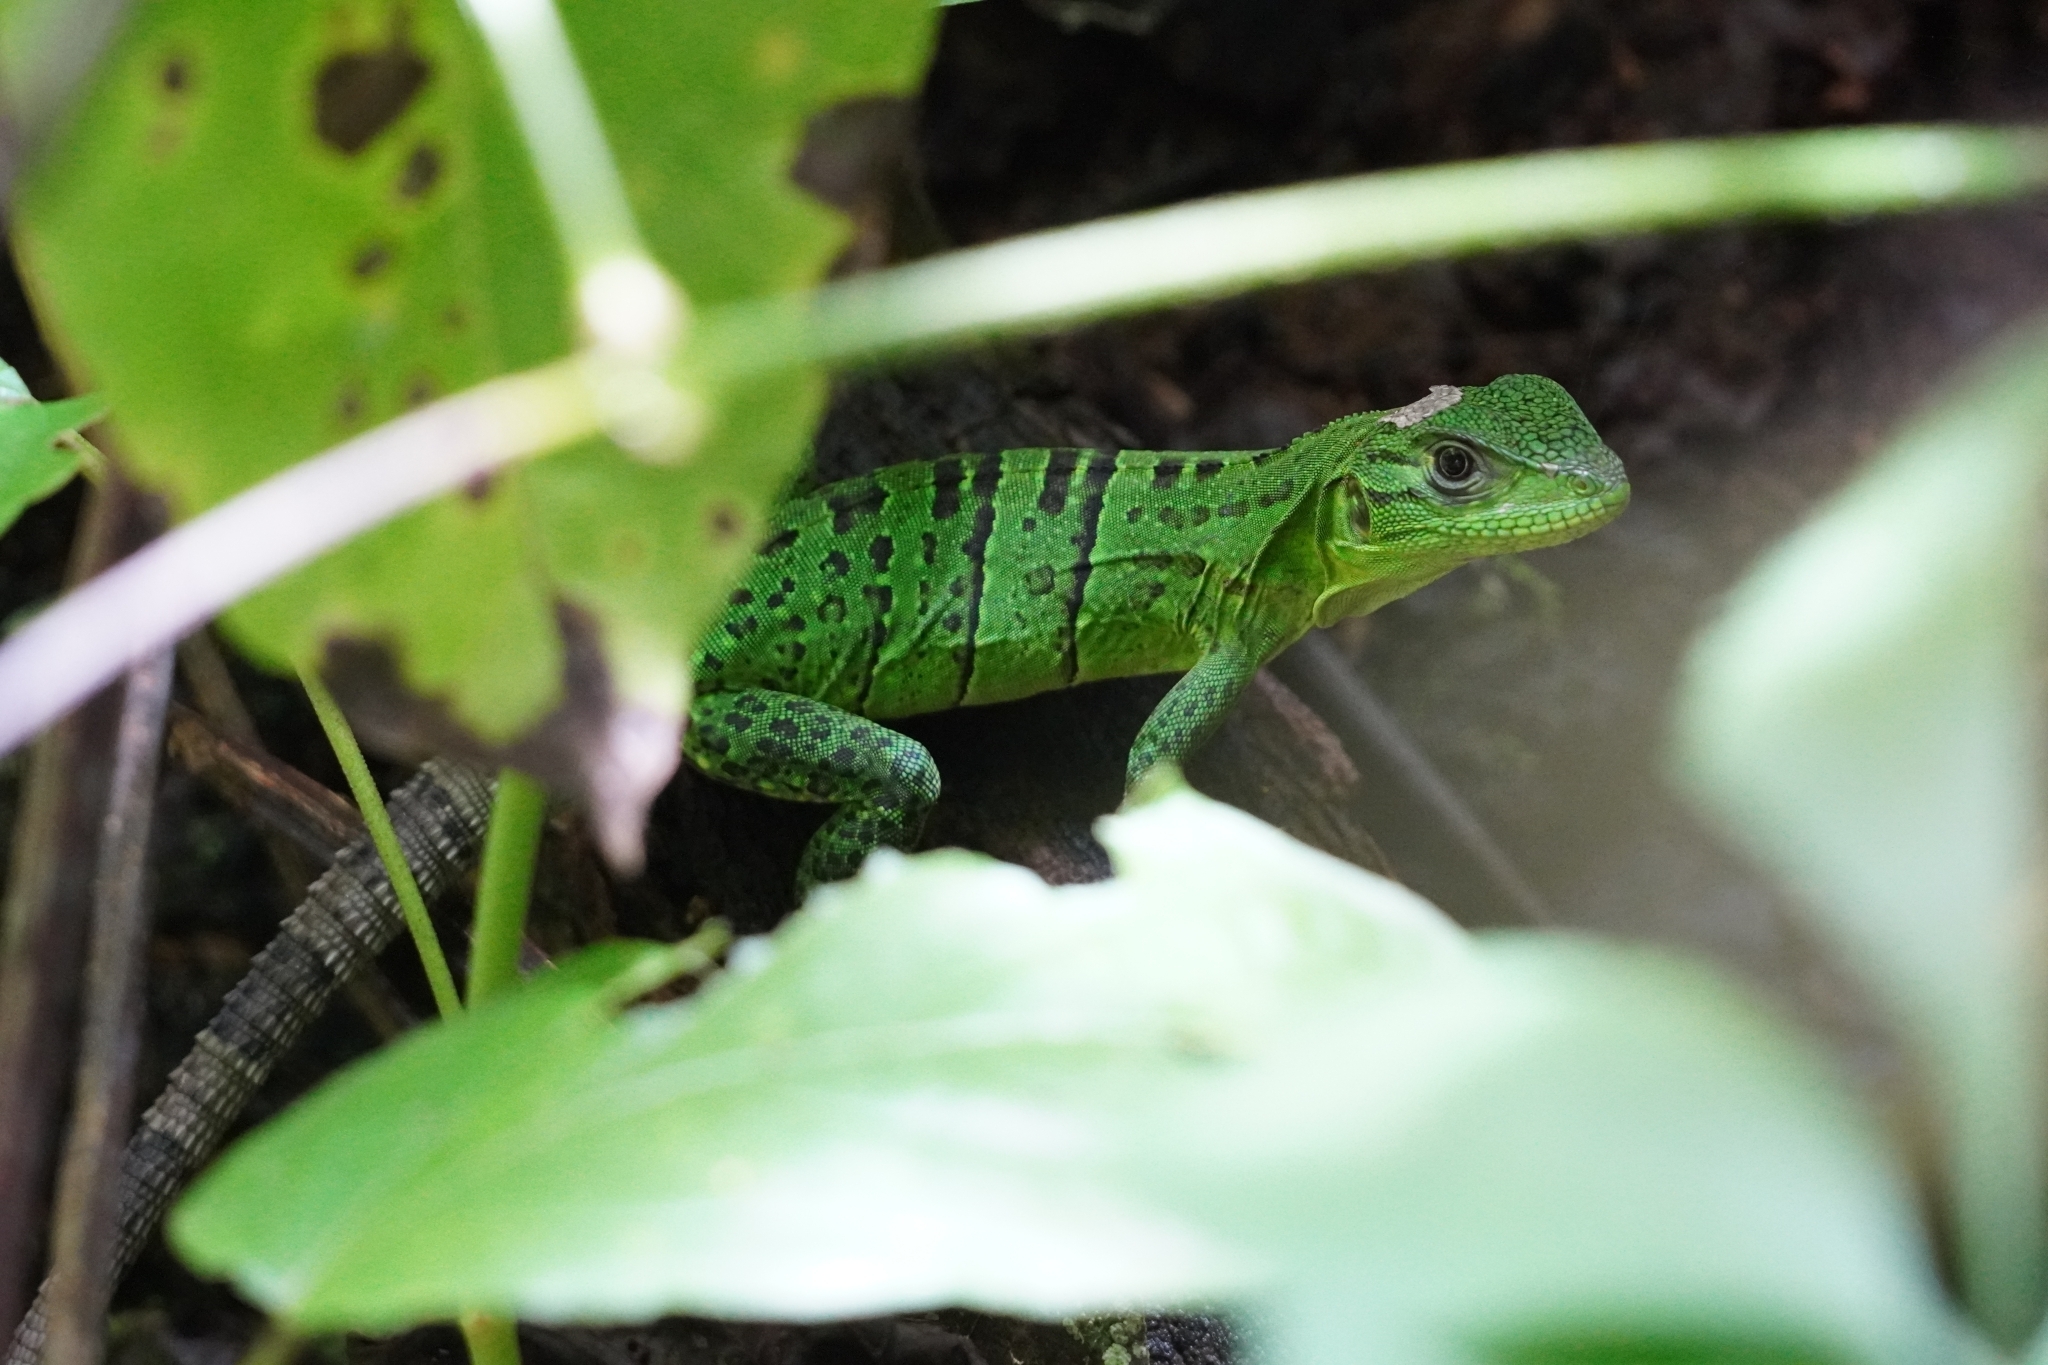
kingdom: Animalia
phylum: Chordata
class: Squamata
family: Iguanidae
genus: Ctenosaura
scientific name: Ctenosaura similis
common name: Black spiny-tailed iguana
